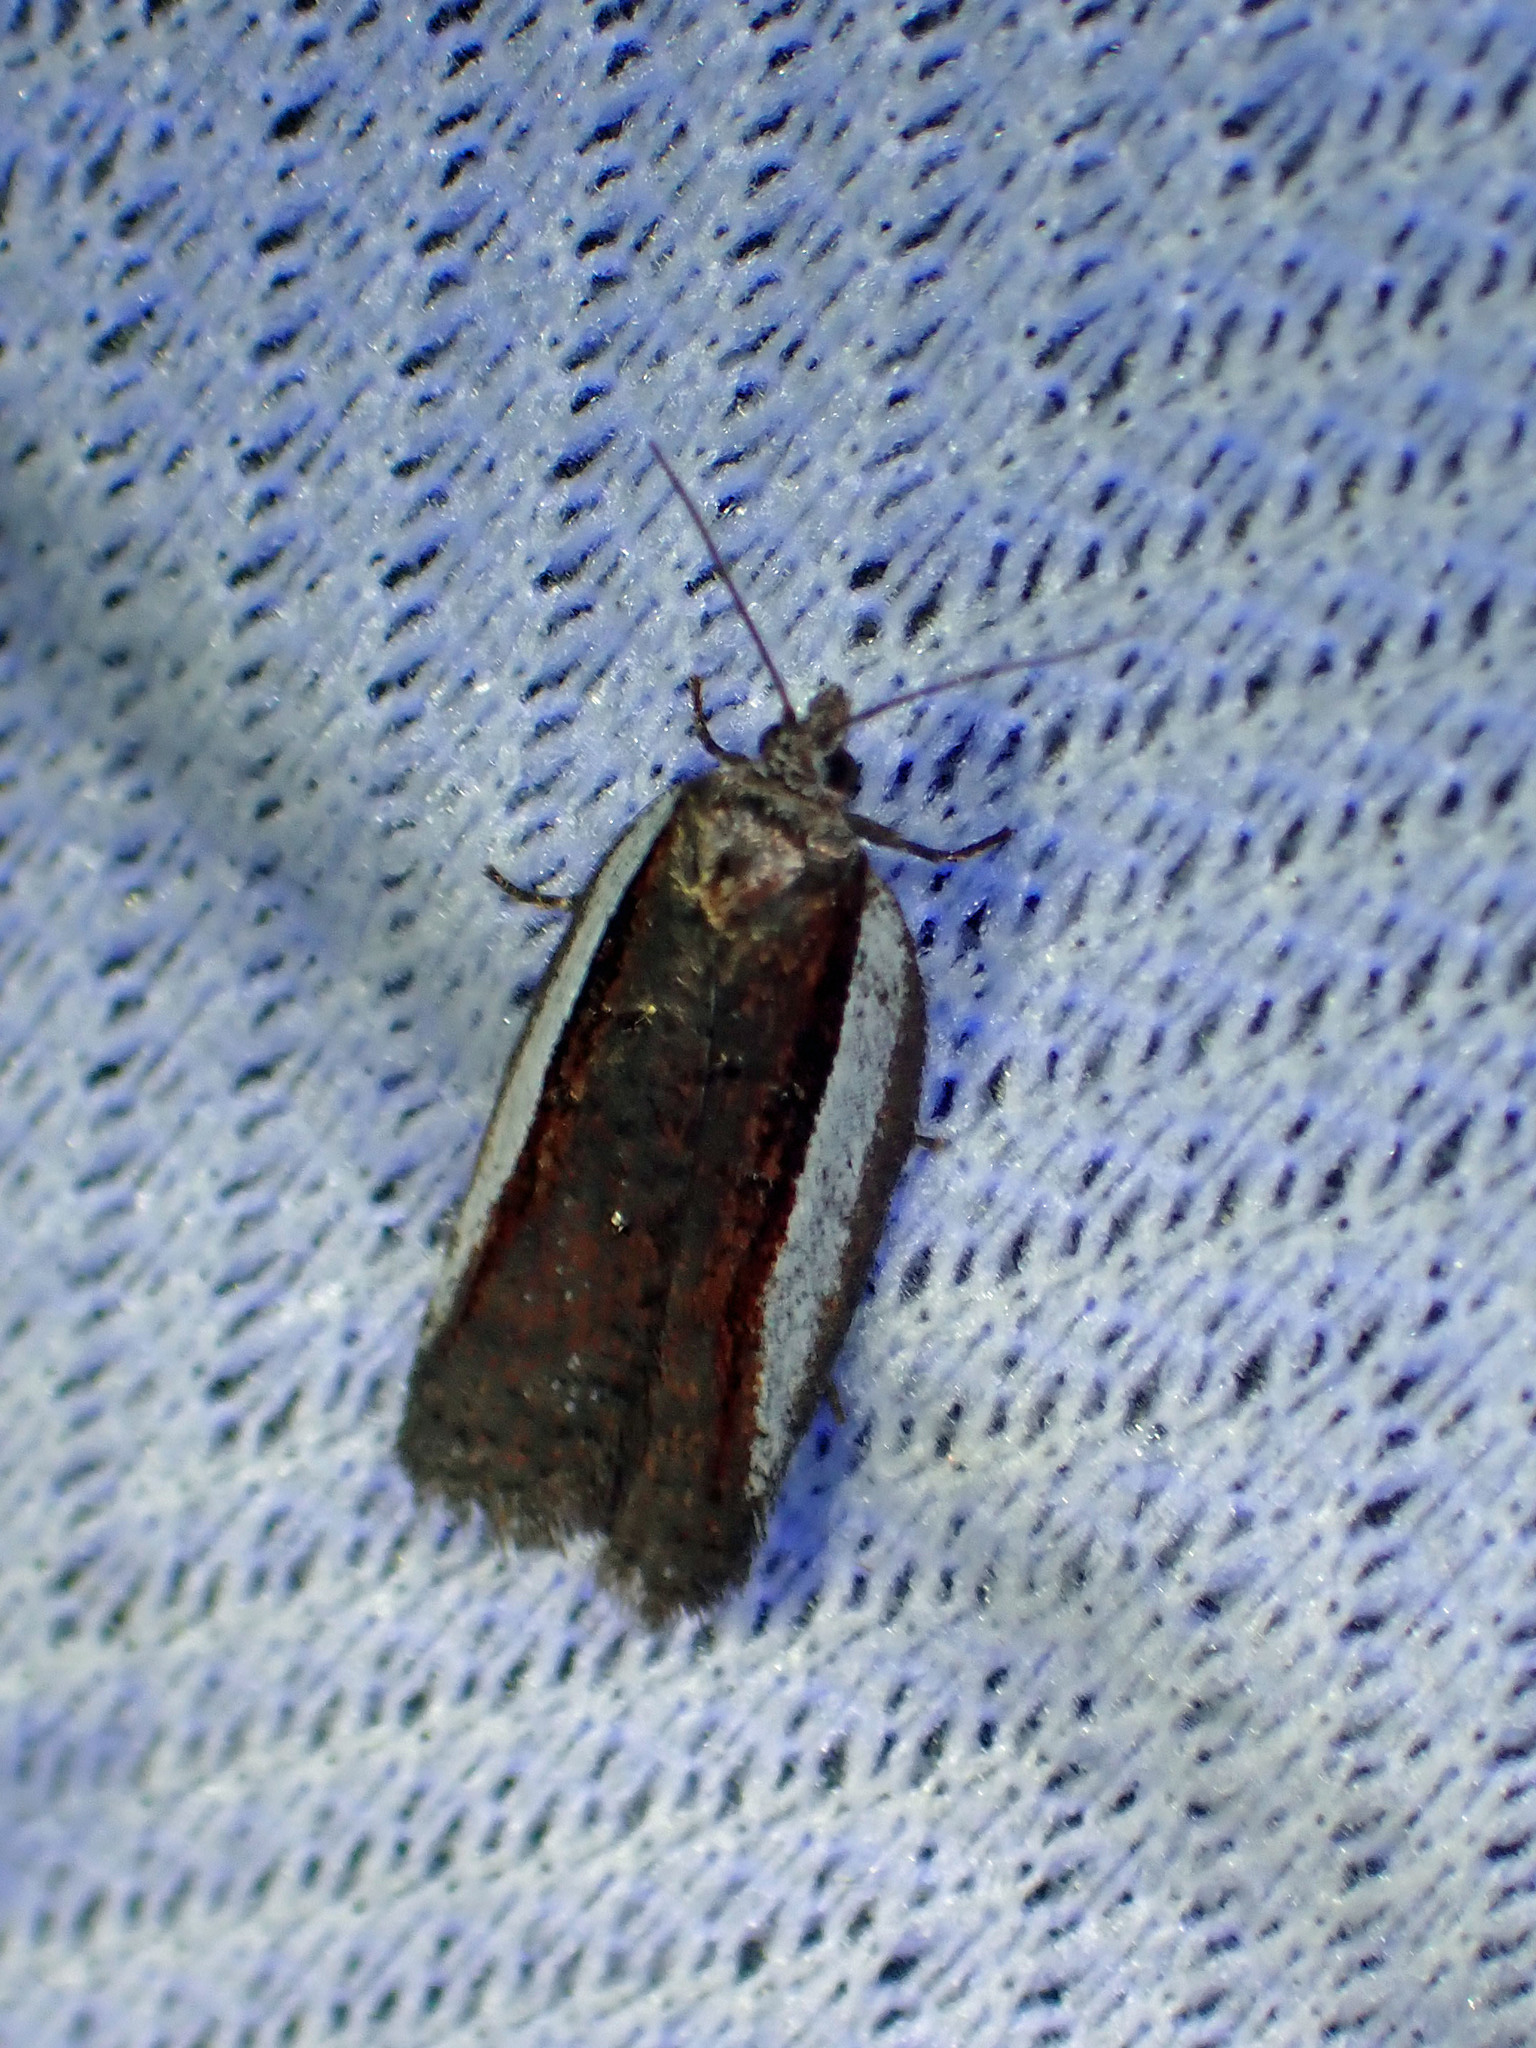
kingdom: Animalia
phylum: Arthropoda
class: Insecta
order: Lepidoptera
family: Tortricidae
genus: Acleris
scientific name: Acleris celiana
